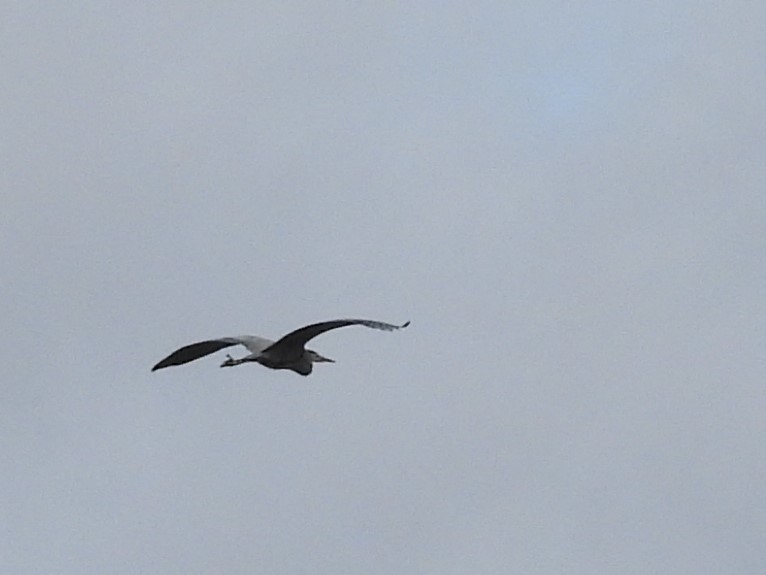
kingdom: Animalia
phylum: Chordata
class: Aves
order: Pelecaniformes
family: Ardeidae
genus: Ardea
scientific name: Ardea herodias
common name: Great blue heron
